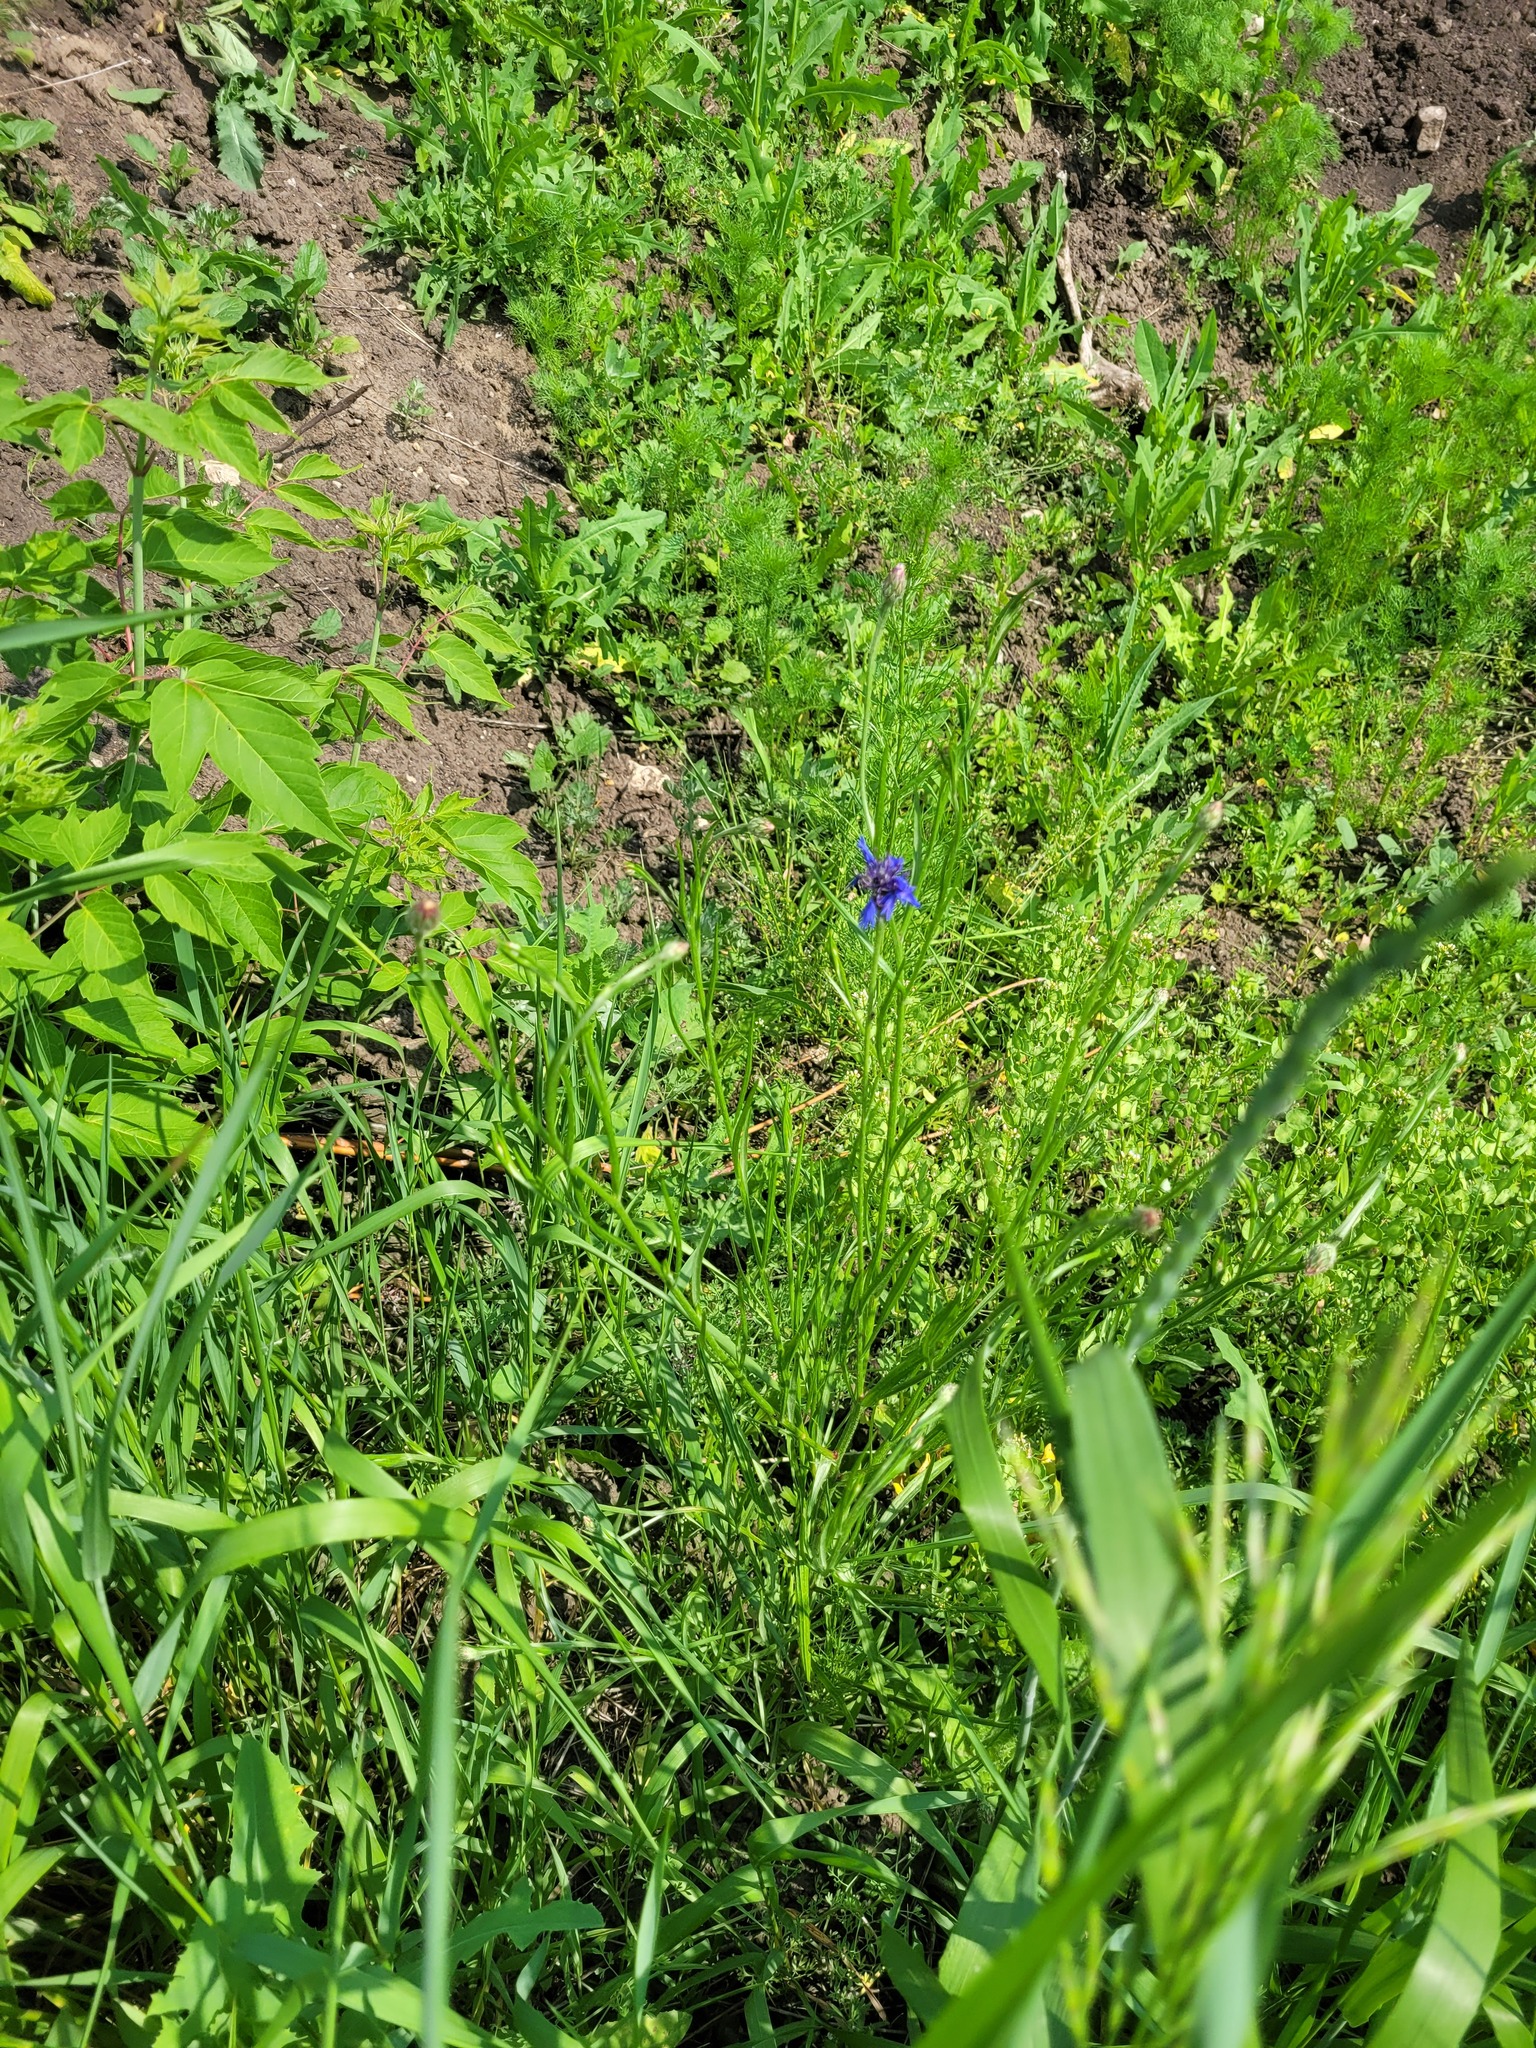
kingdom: Plantae
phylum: Tracheophyta
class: Magnoliopsida
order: Asterales
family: Asteraceae
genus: Centaurea
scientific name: Centaurea cyanus
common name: Cornflower
